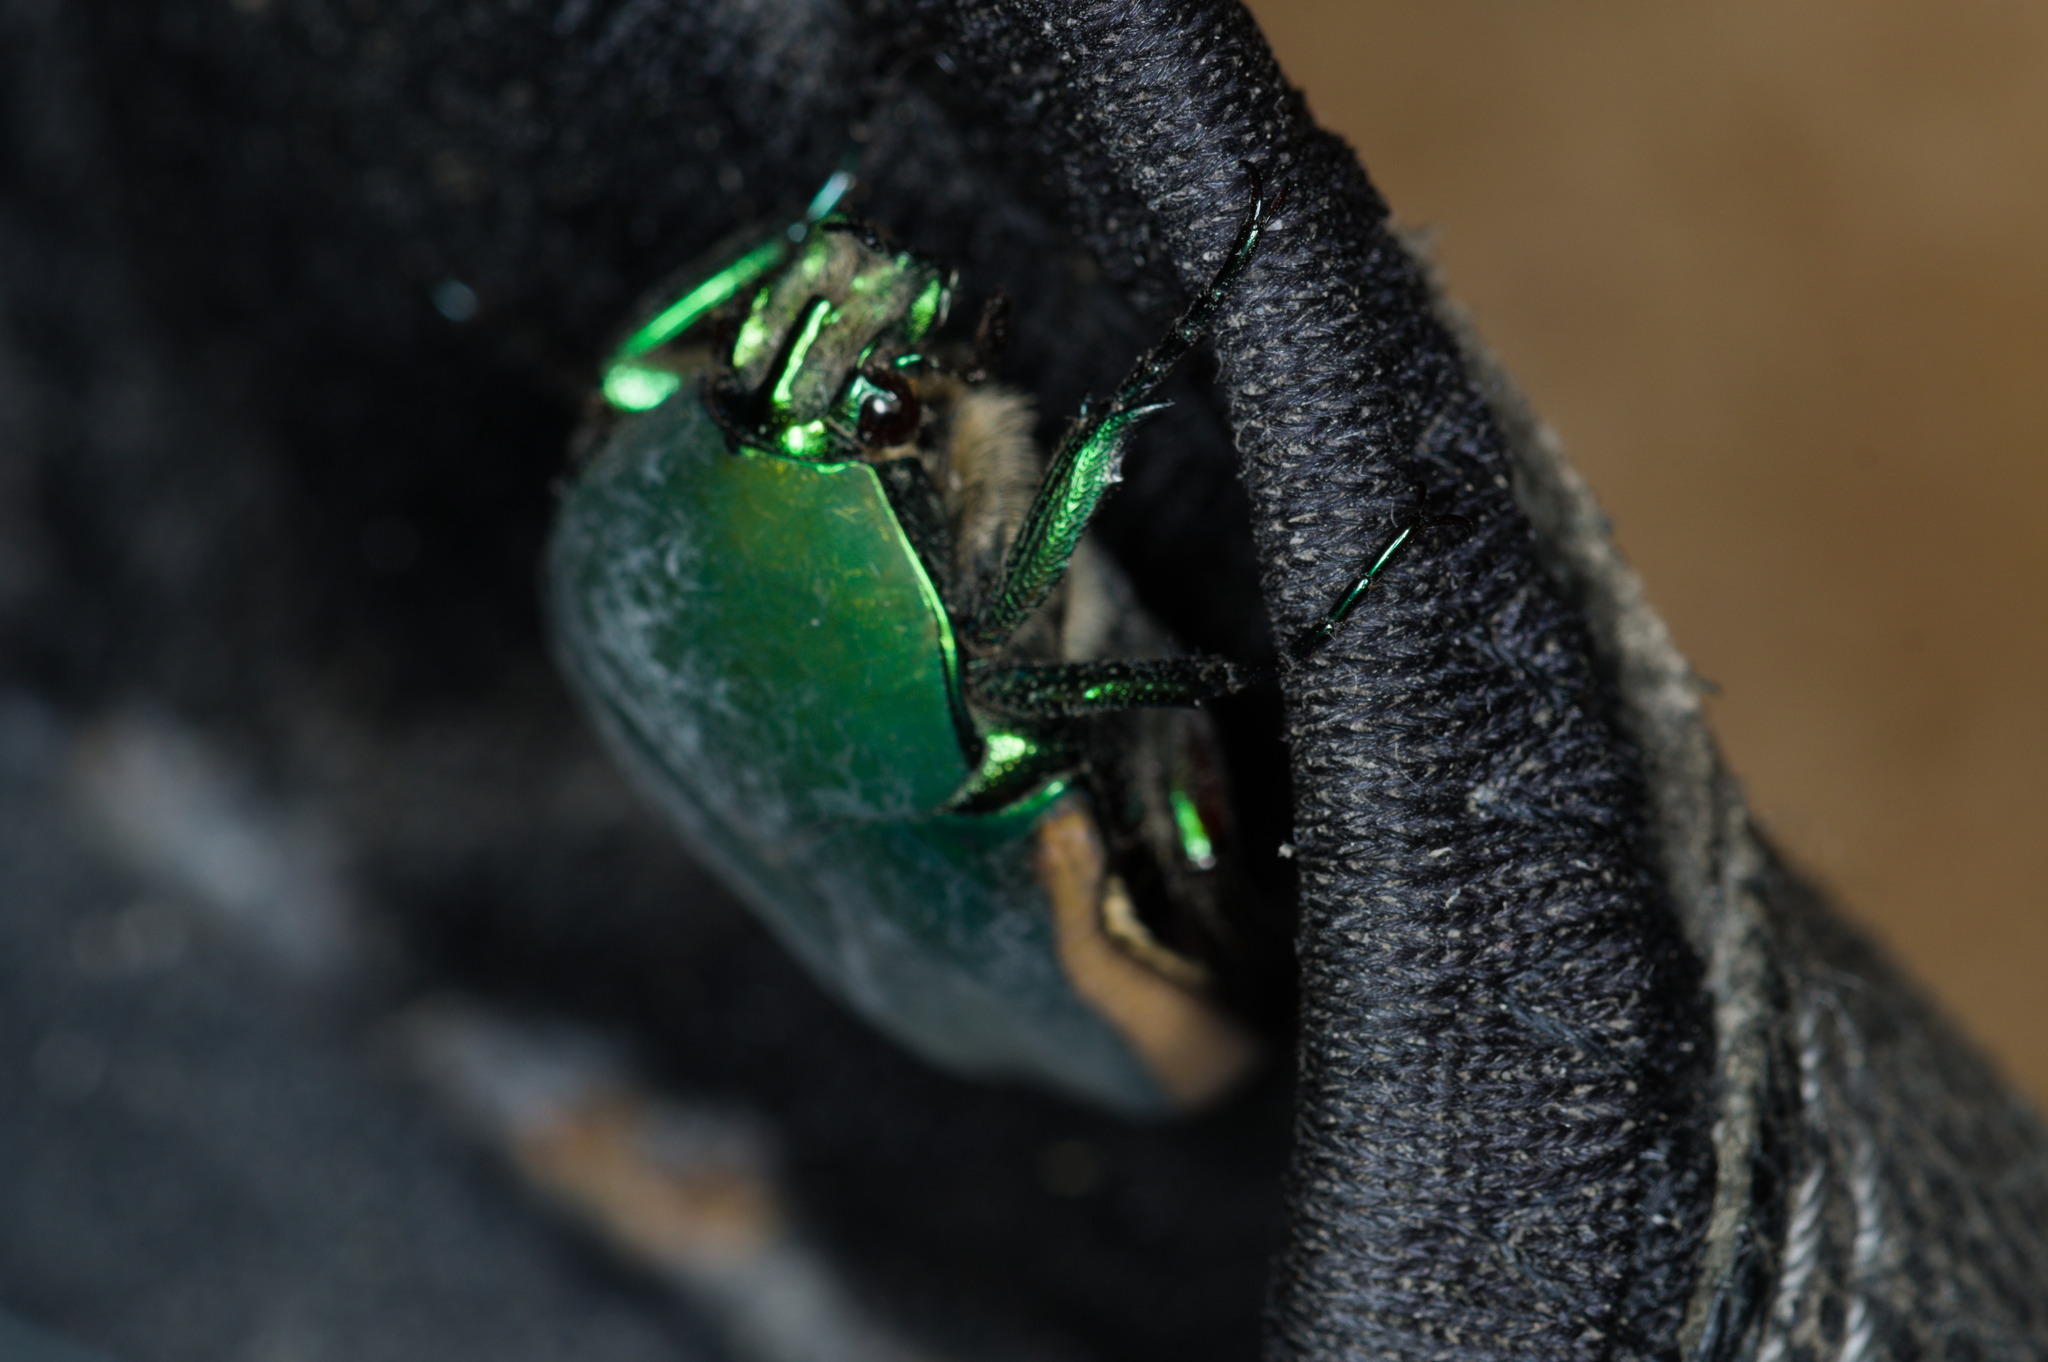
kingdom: Animalia
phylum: Arthropoda
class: Insecta
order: Coleoptera
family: Scarabaeidae
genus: Cotinis
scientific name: Cotinis mutabilis
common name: Figeater beetle
